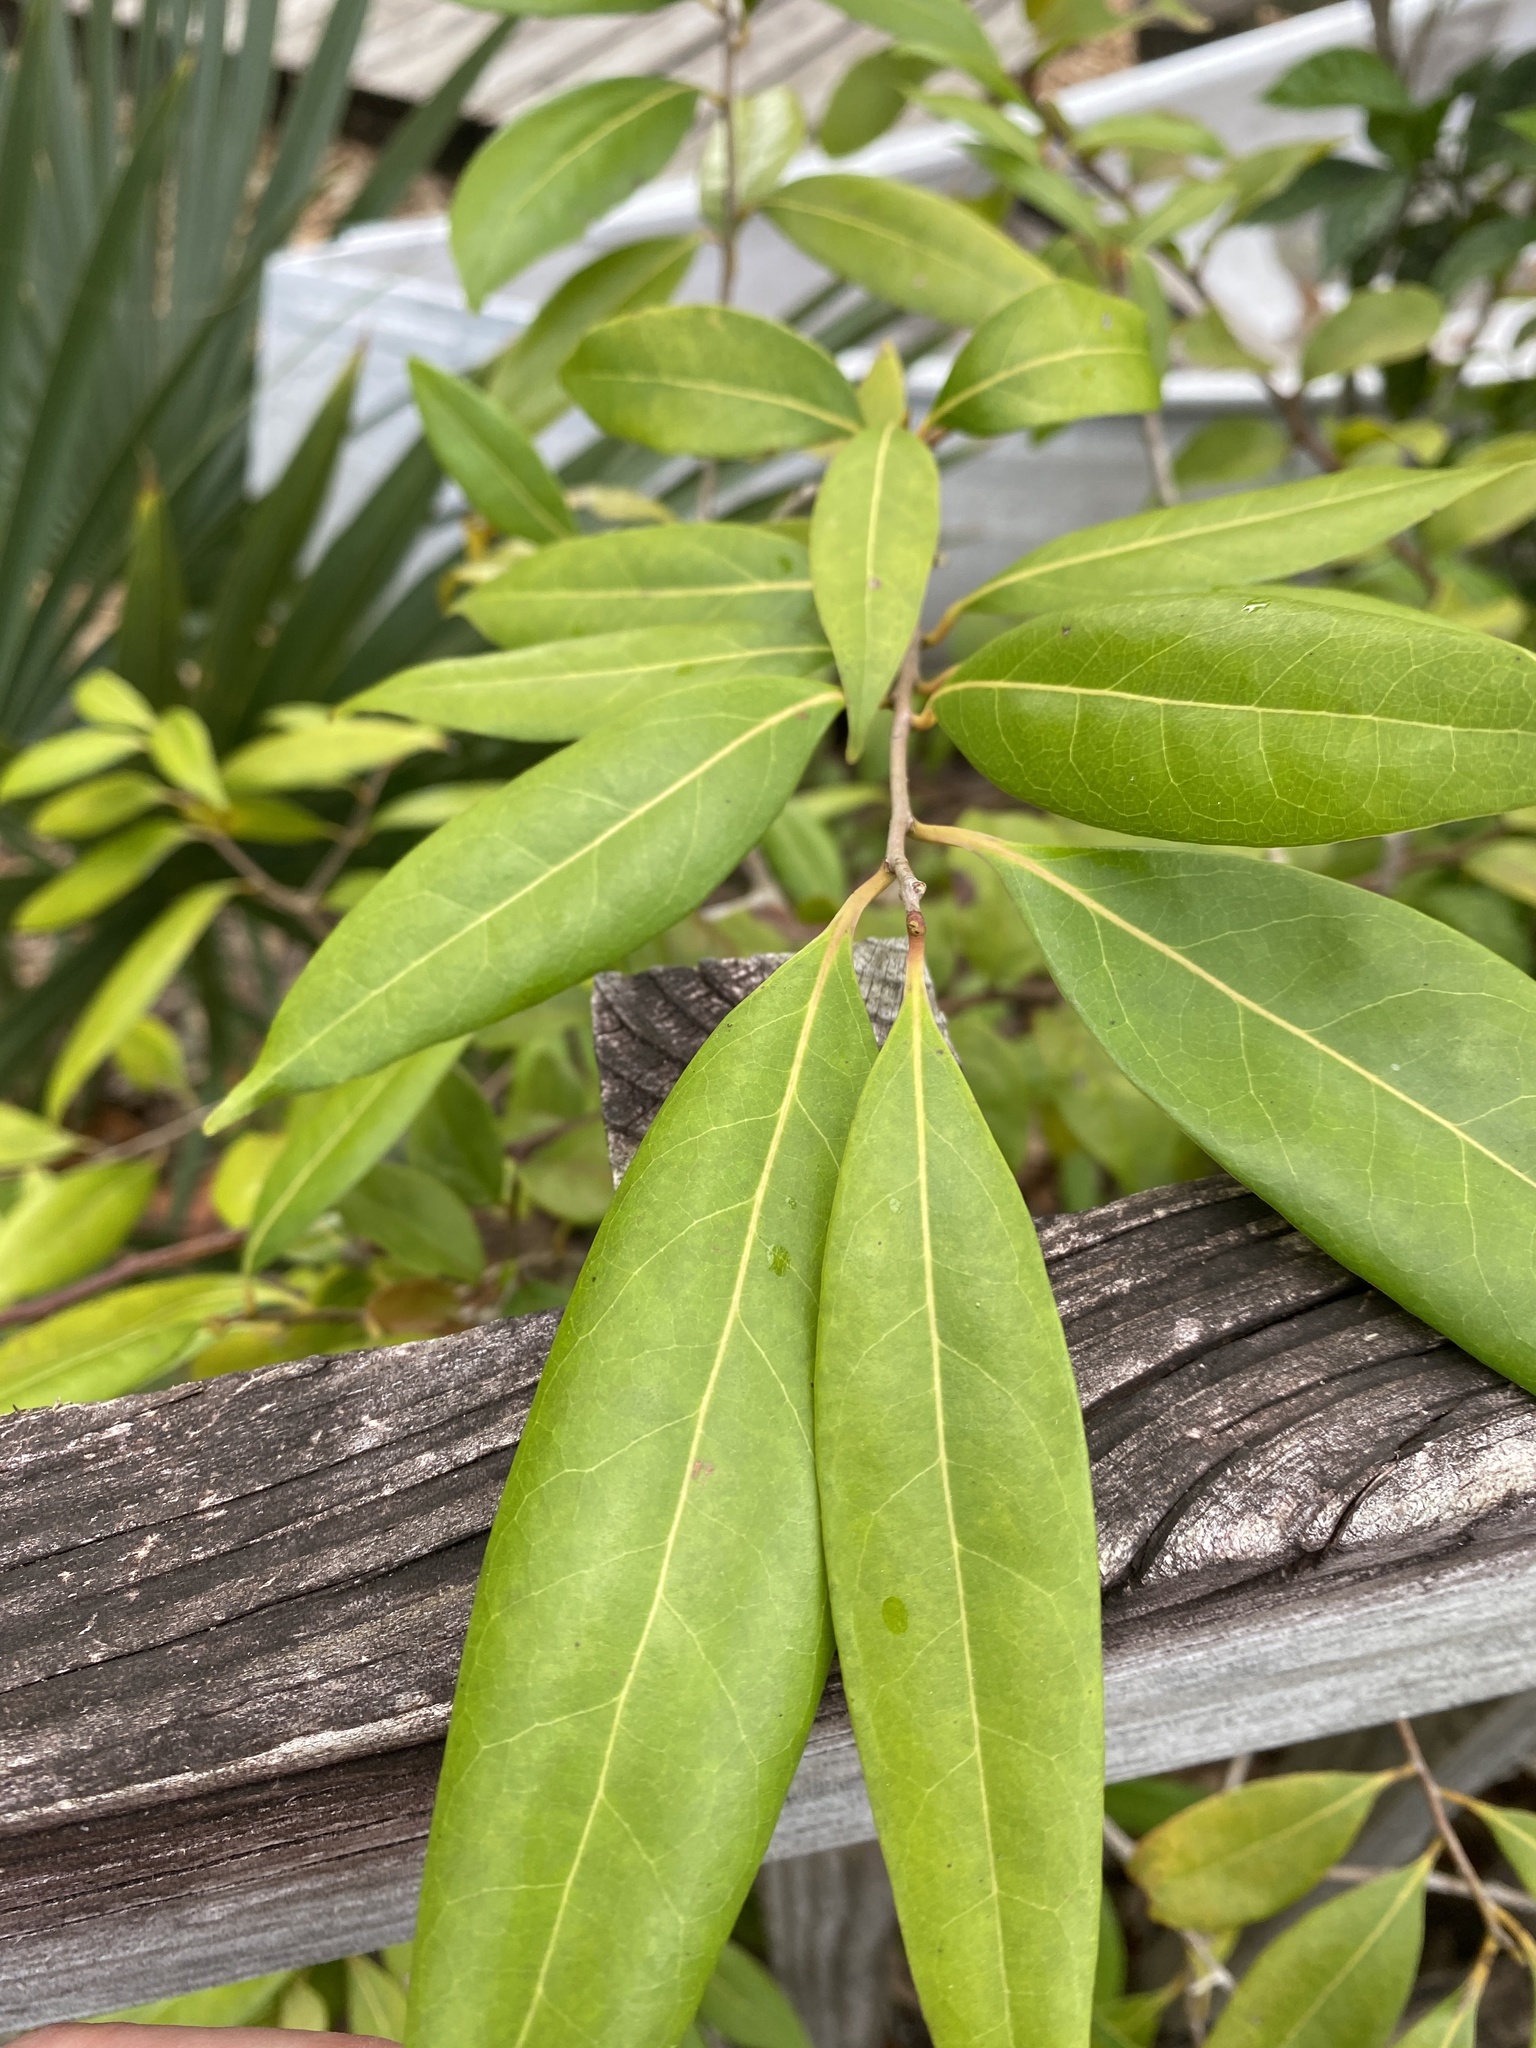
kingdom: Plantae
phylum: Tracheophyta
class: Magnoliopsida
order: Laurales
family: Lauraceae
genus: Damburneya
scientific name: Damburneya
